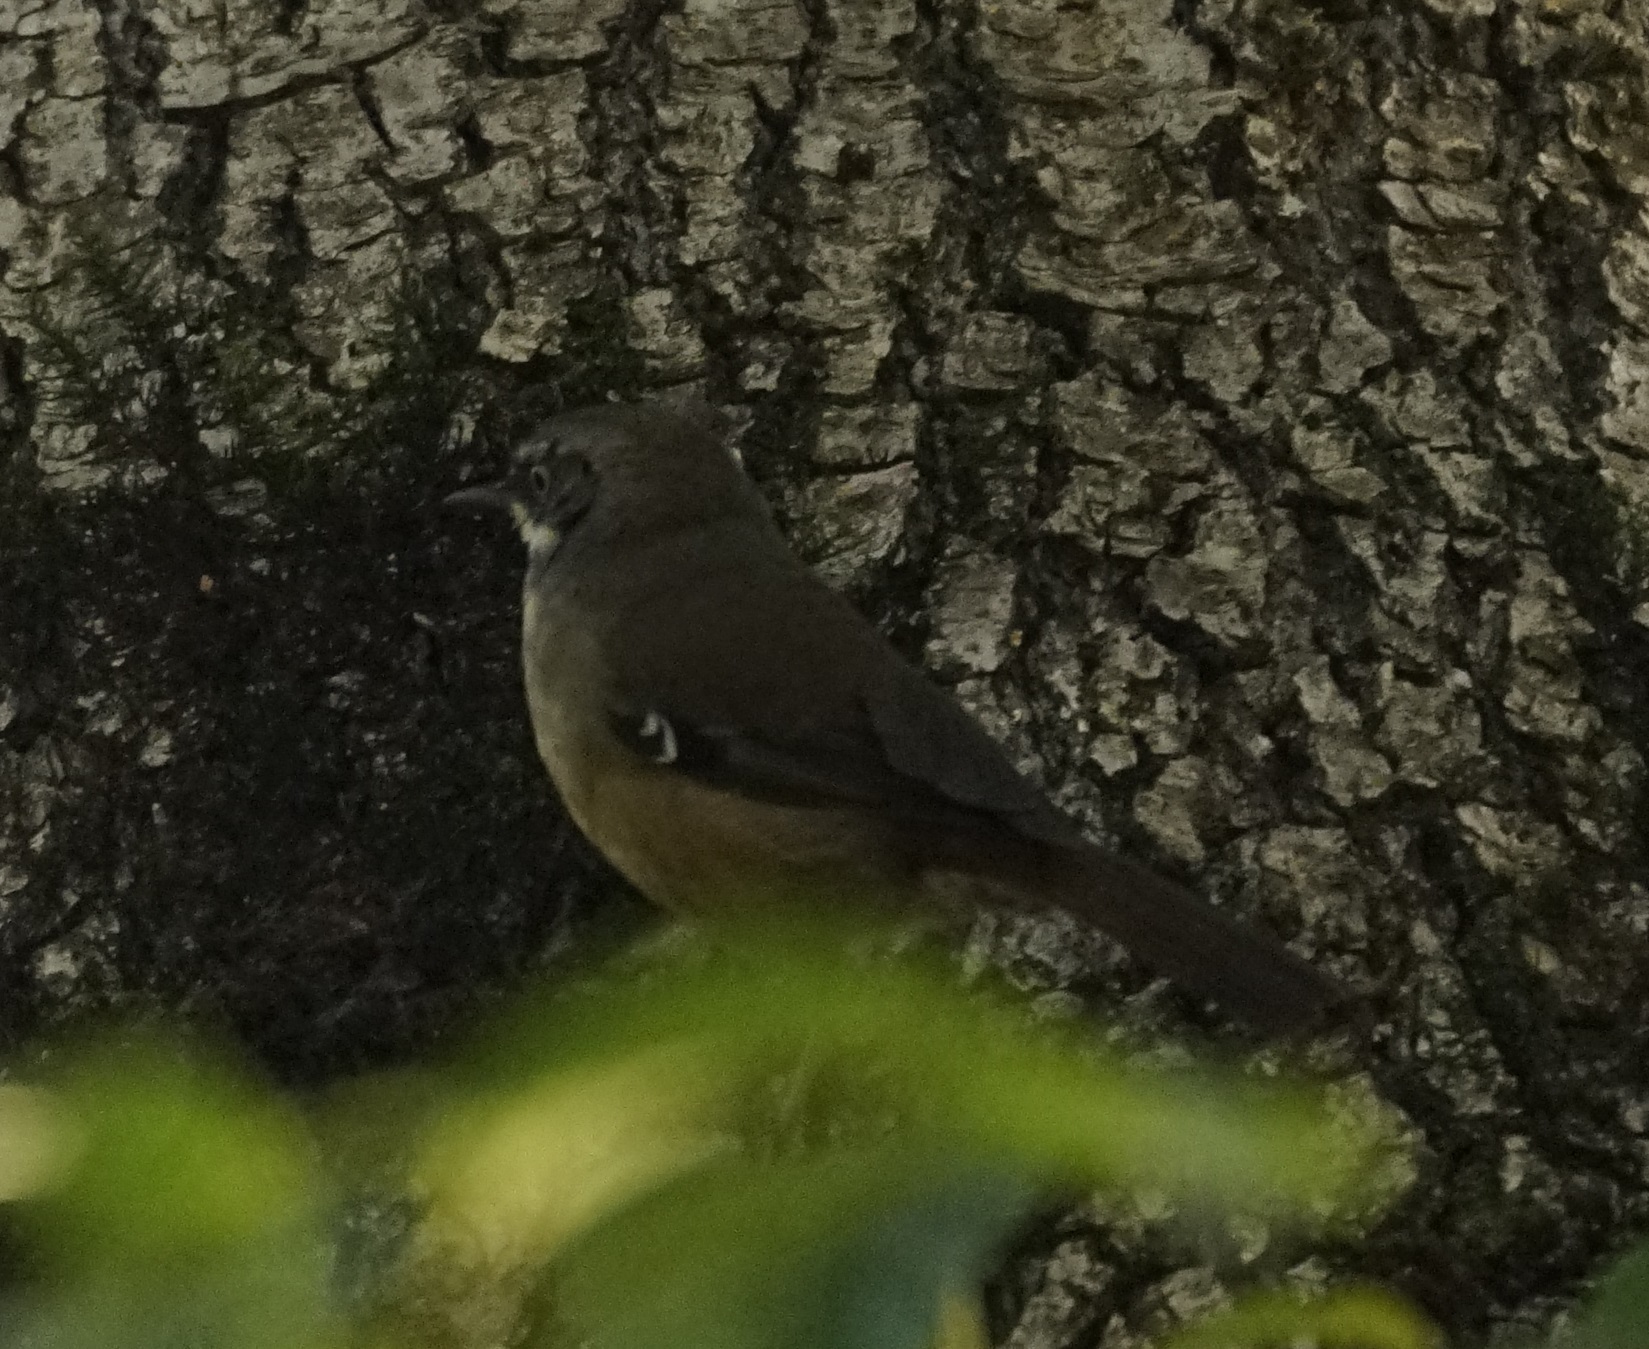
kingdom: Animalia
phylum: Chordata
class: Aves
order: Passeriformes
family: Acanthizidae
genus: Sericornis
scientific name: Sericornis frontalis
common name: White-browed scrubwren
